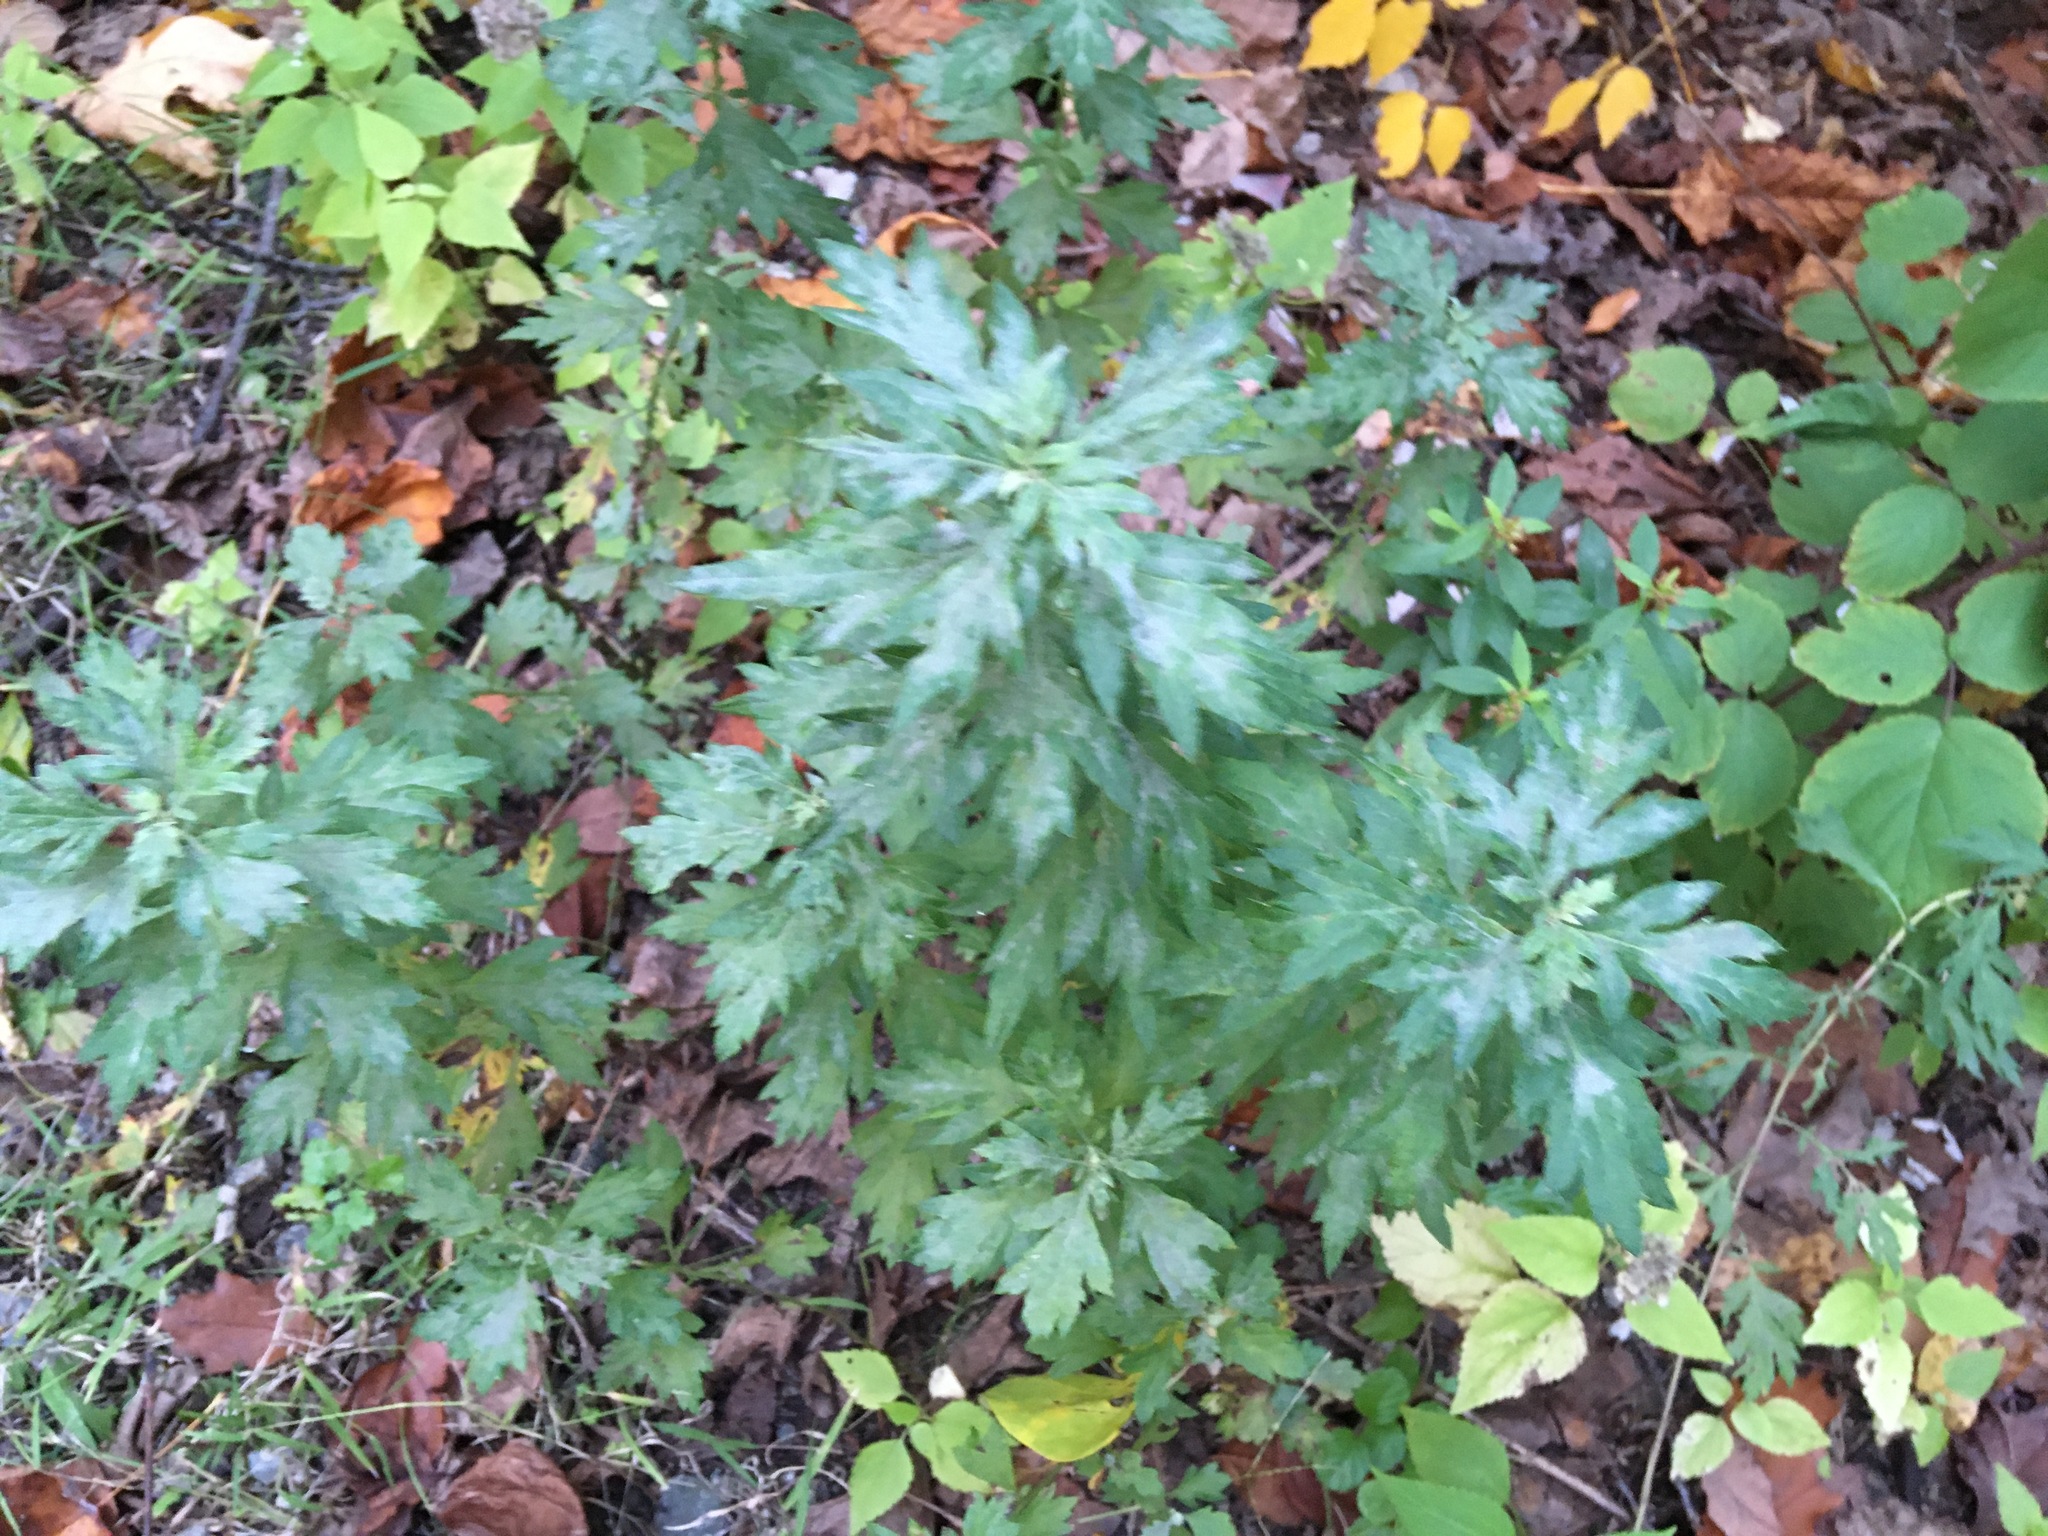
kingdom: Plantae
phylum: Tracheophyta
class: Magnoliopsida
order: Asterales
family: Asteraceae
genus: Artemisia
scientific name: Artemisia vulgaris
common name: Mugwort
